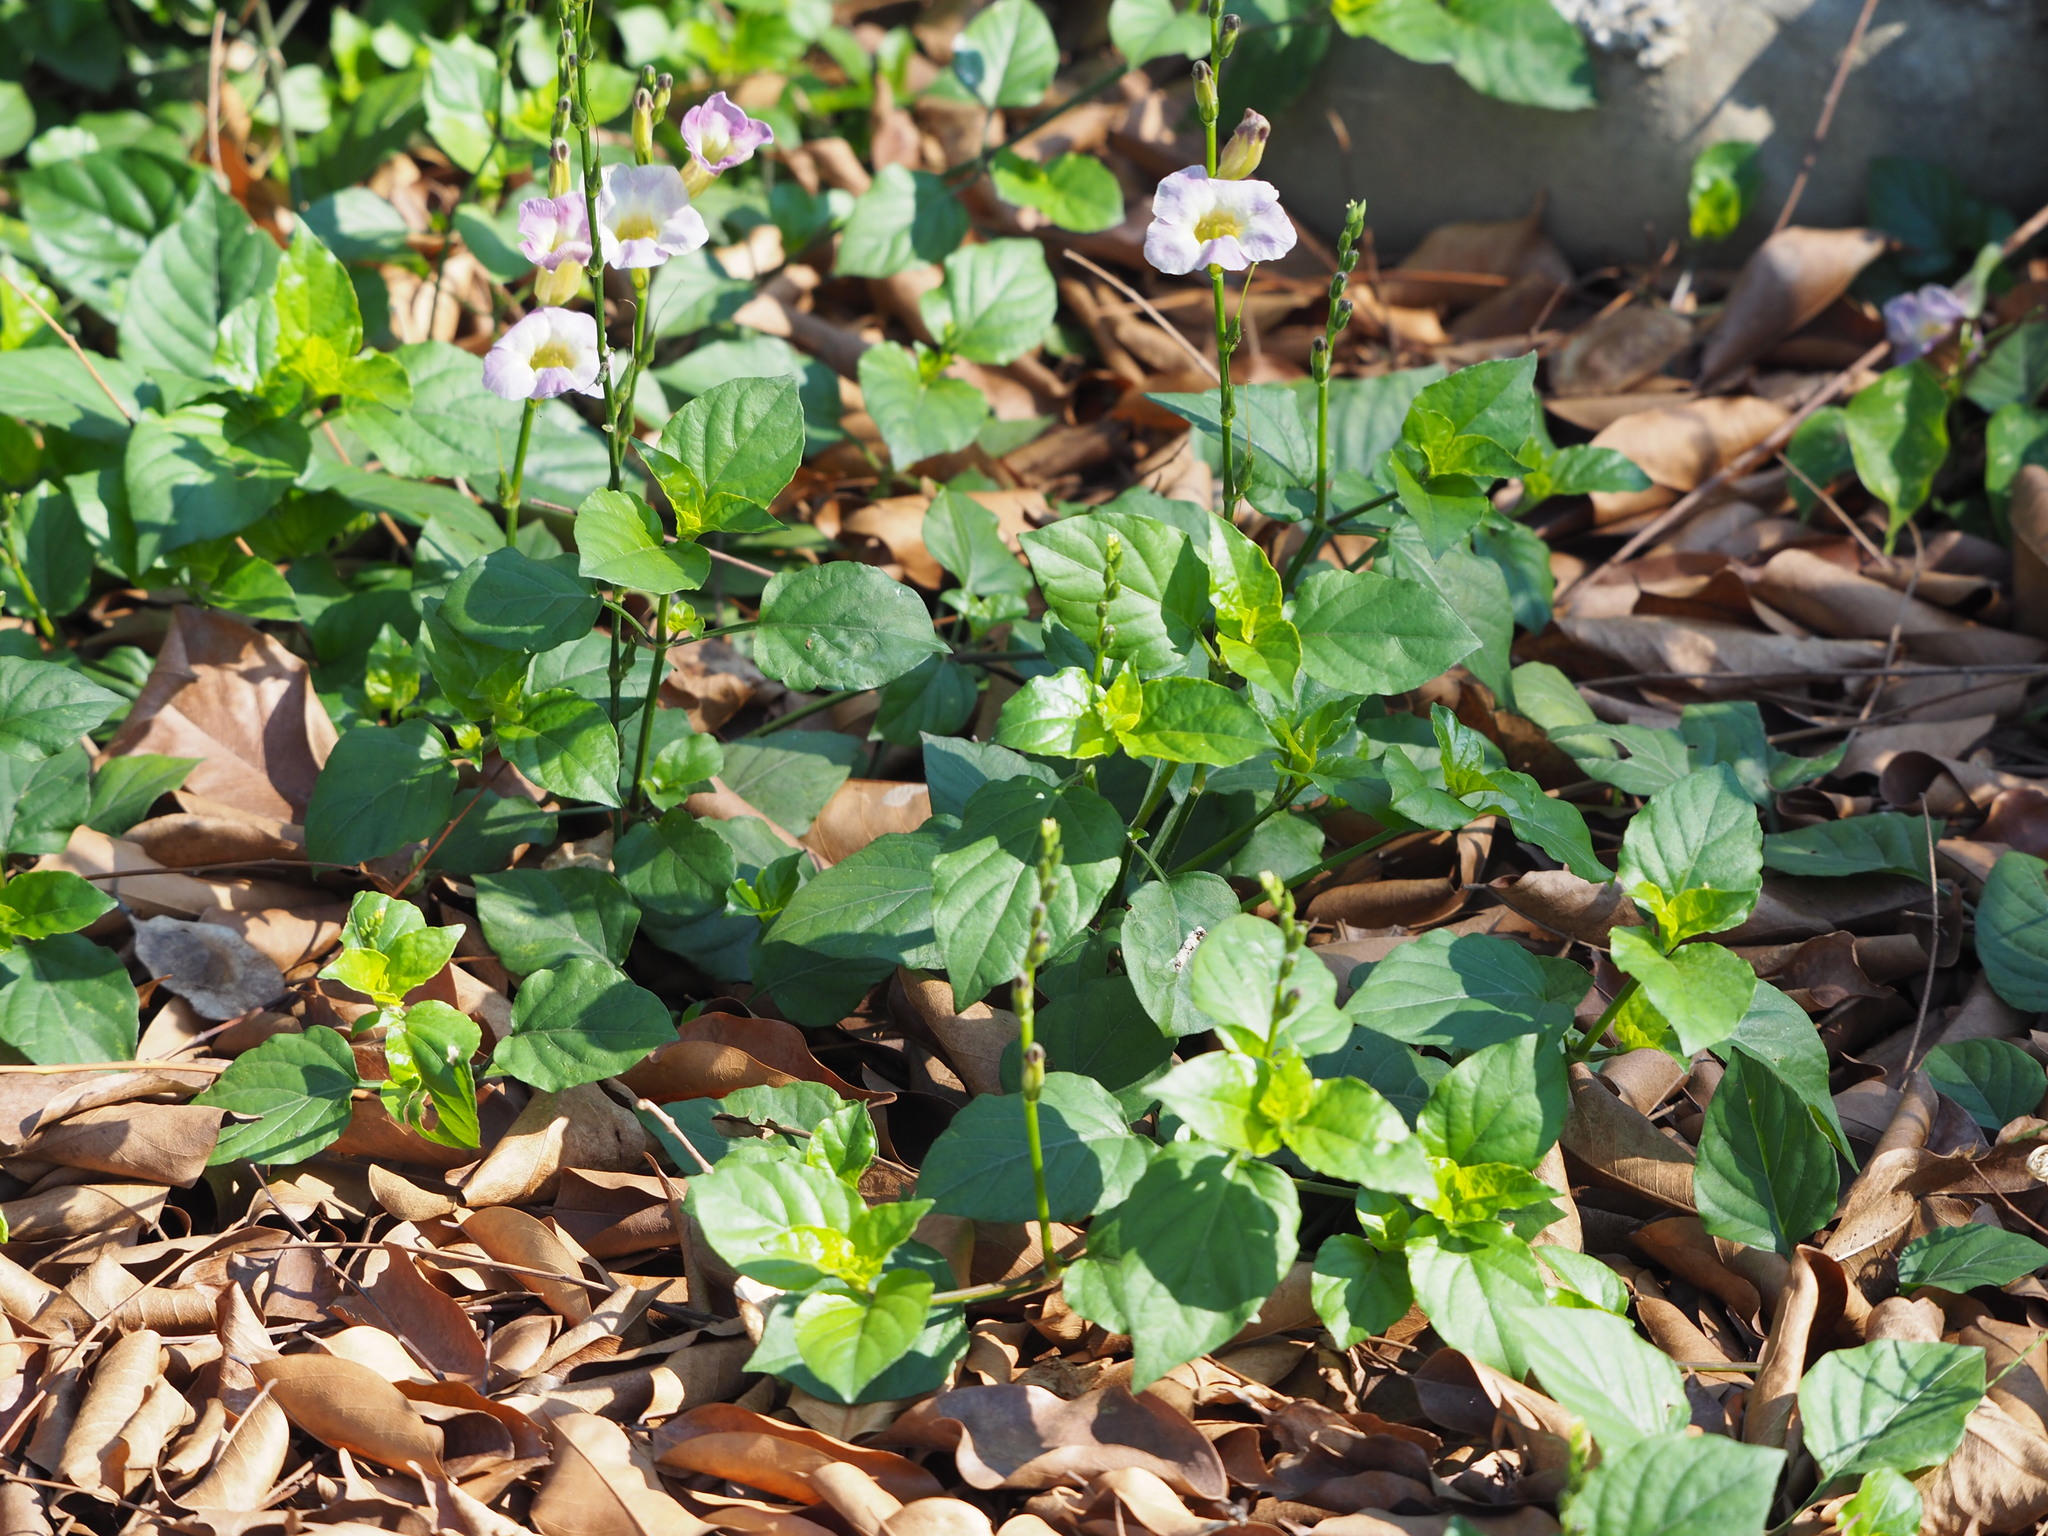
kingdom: Plantae
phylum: Tracheophyta
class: Magnoliopsida
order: Lamiales
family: Acanthaceae
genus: Asystasia
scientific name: Asystasia gangetica
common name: Chinese violet
